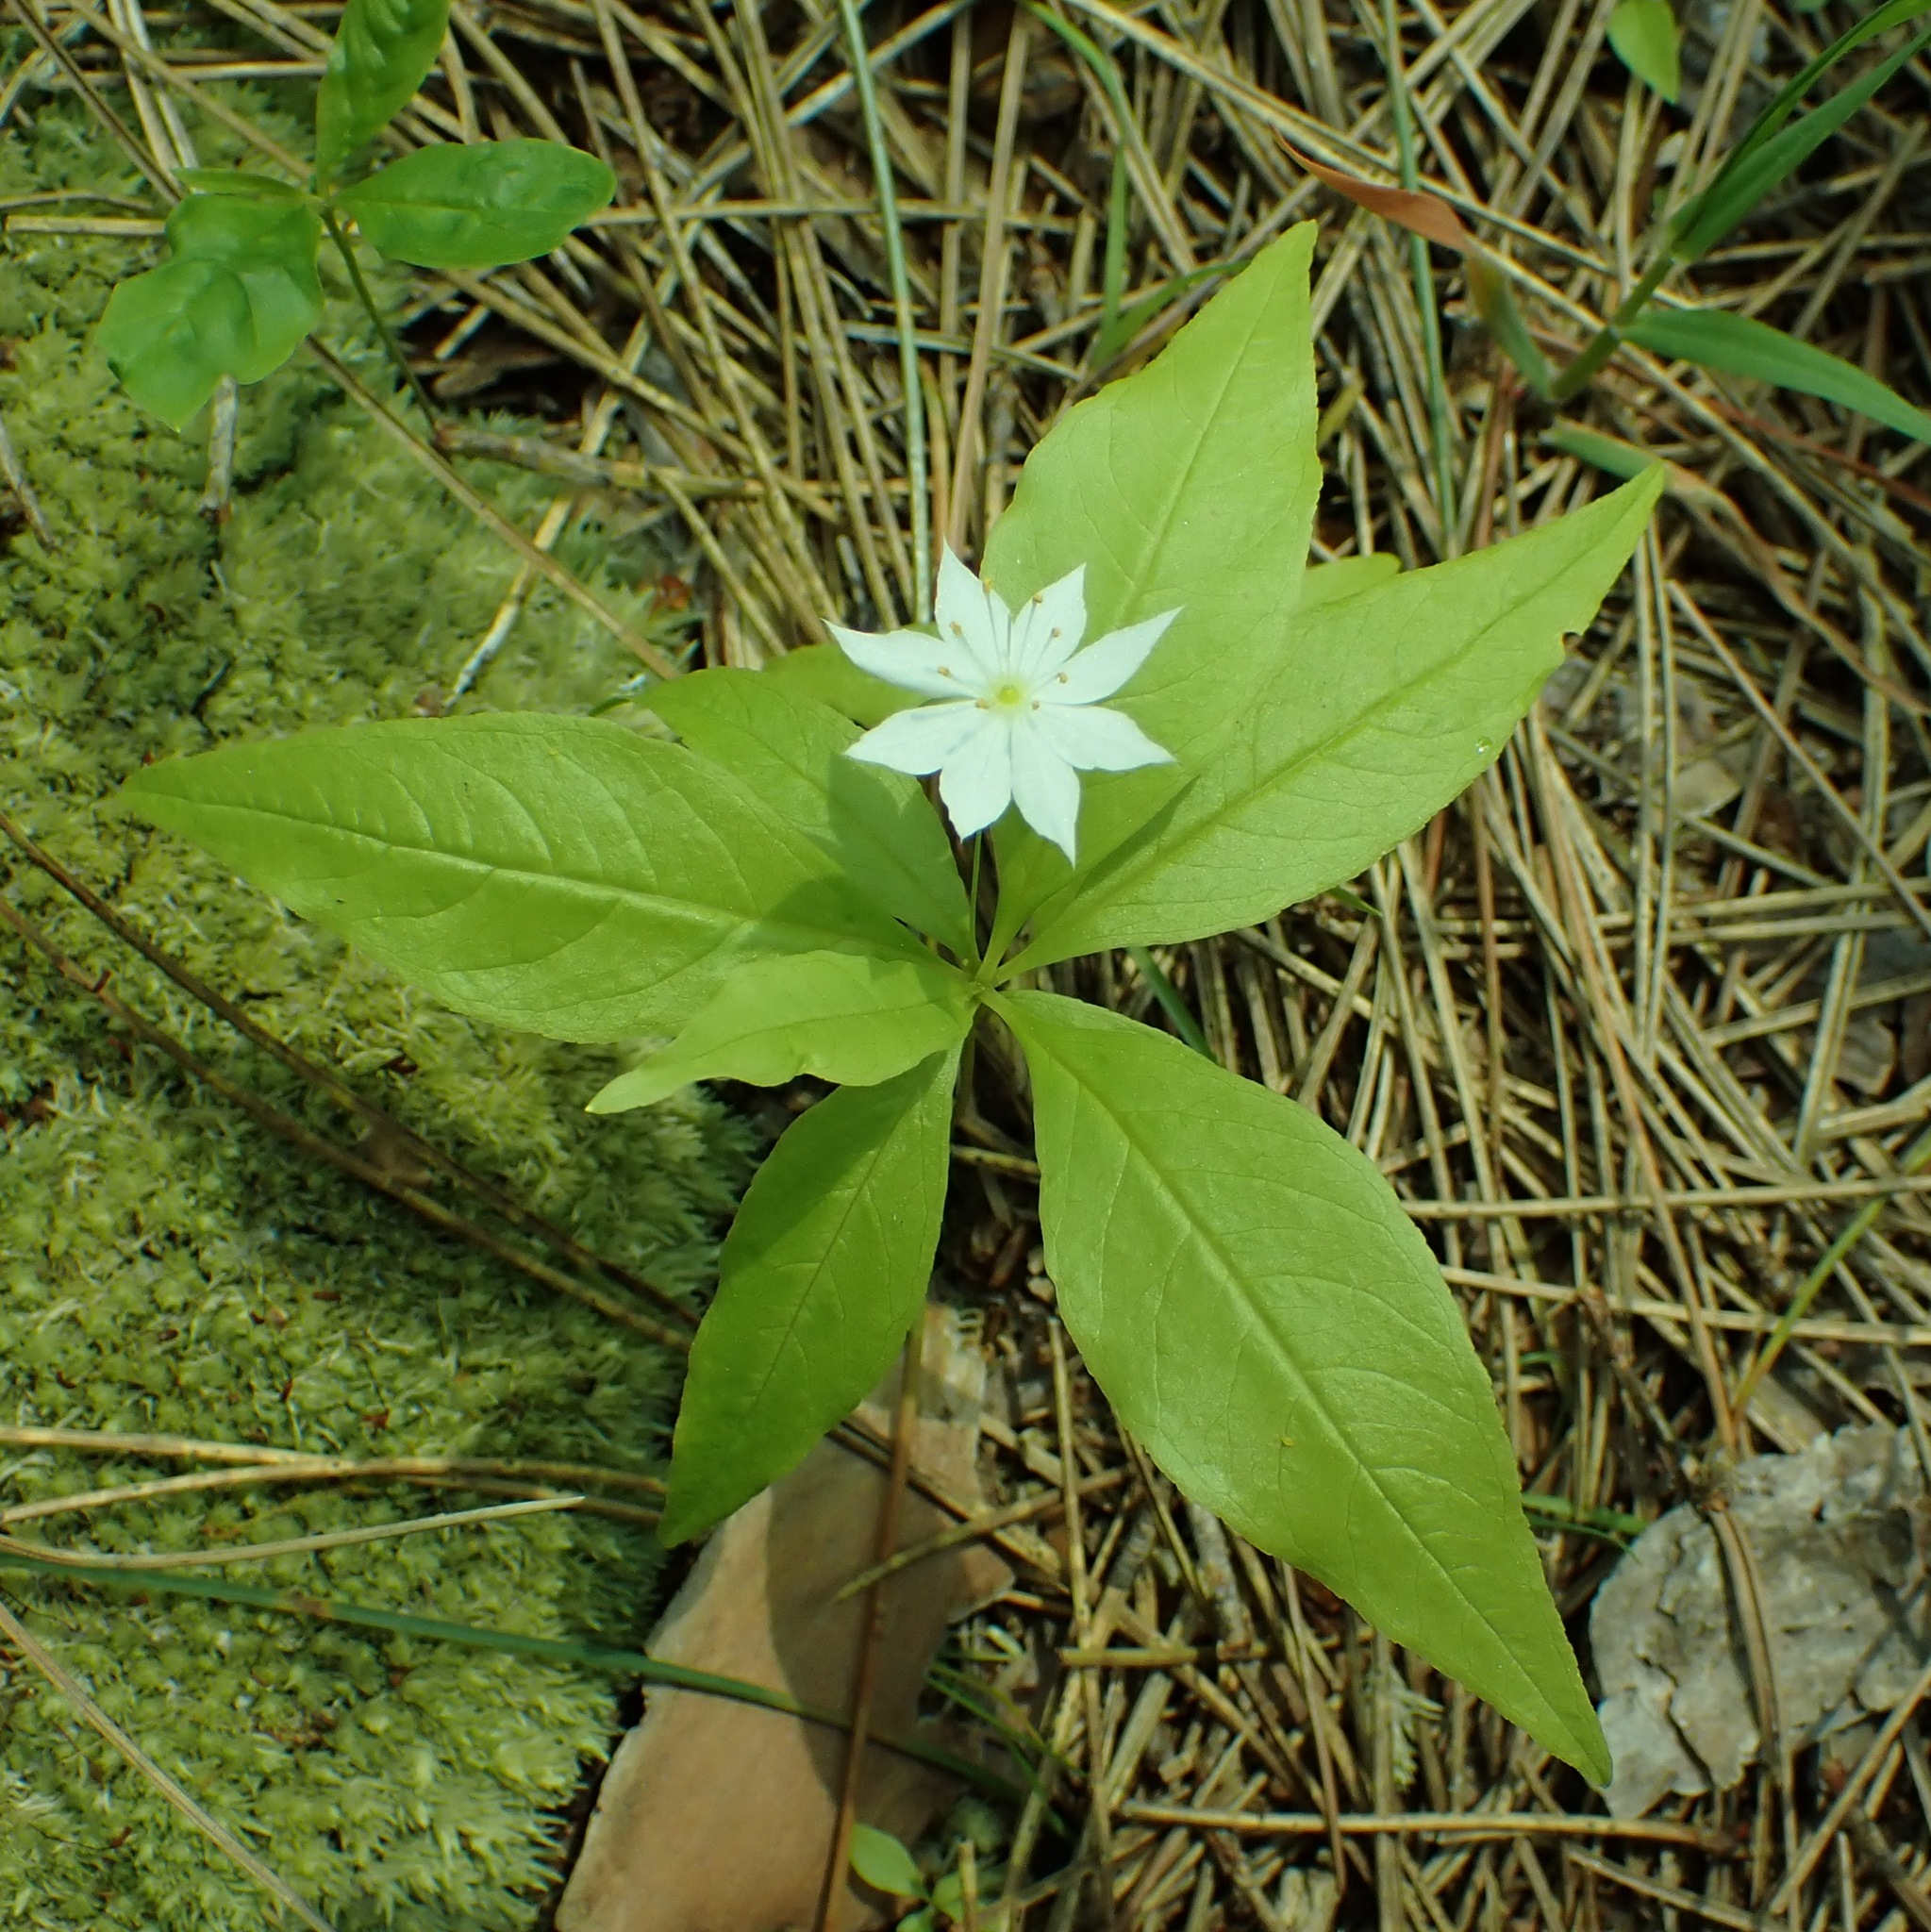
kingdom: Plantae
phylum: Tracheophyta
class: Magnoliopsida
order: Ericales
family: Primulaceae
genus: Lysimachia
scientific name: Lysimachia borealis
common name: American starflower
